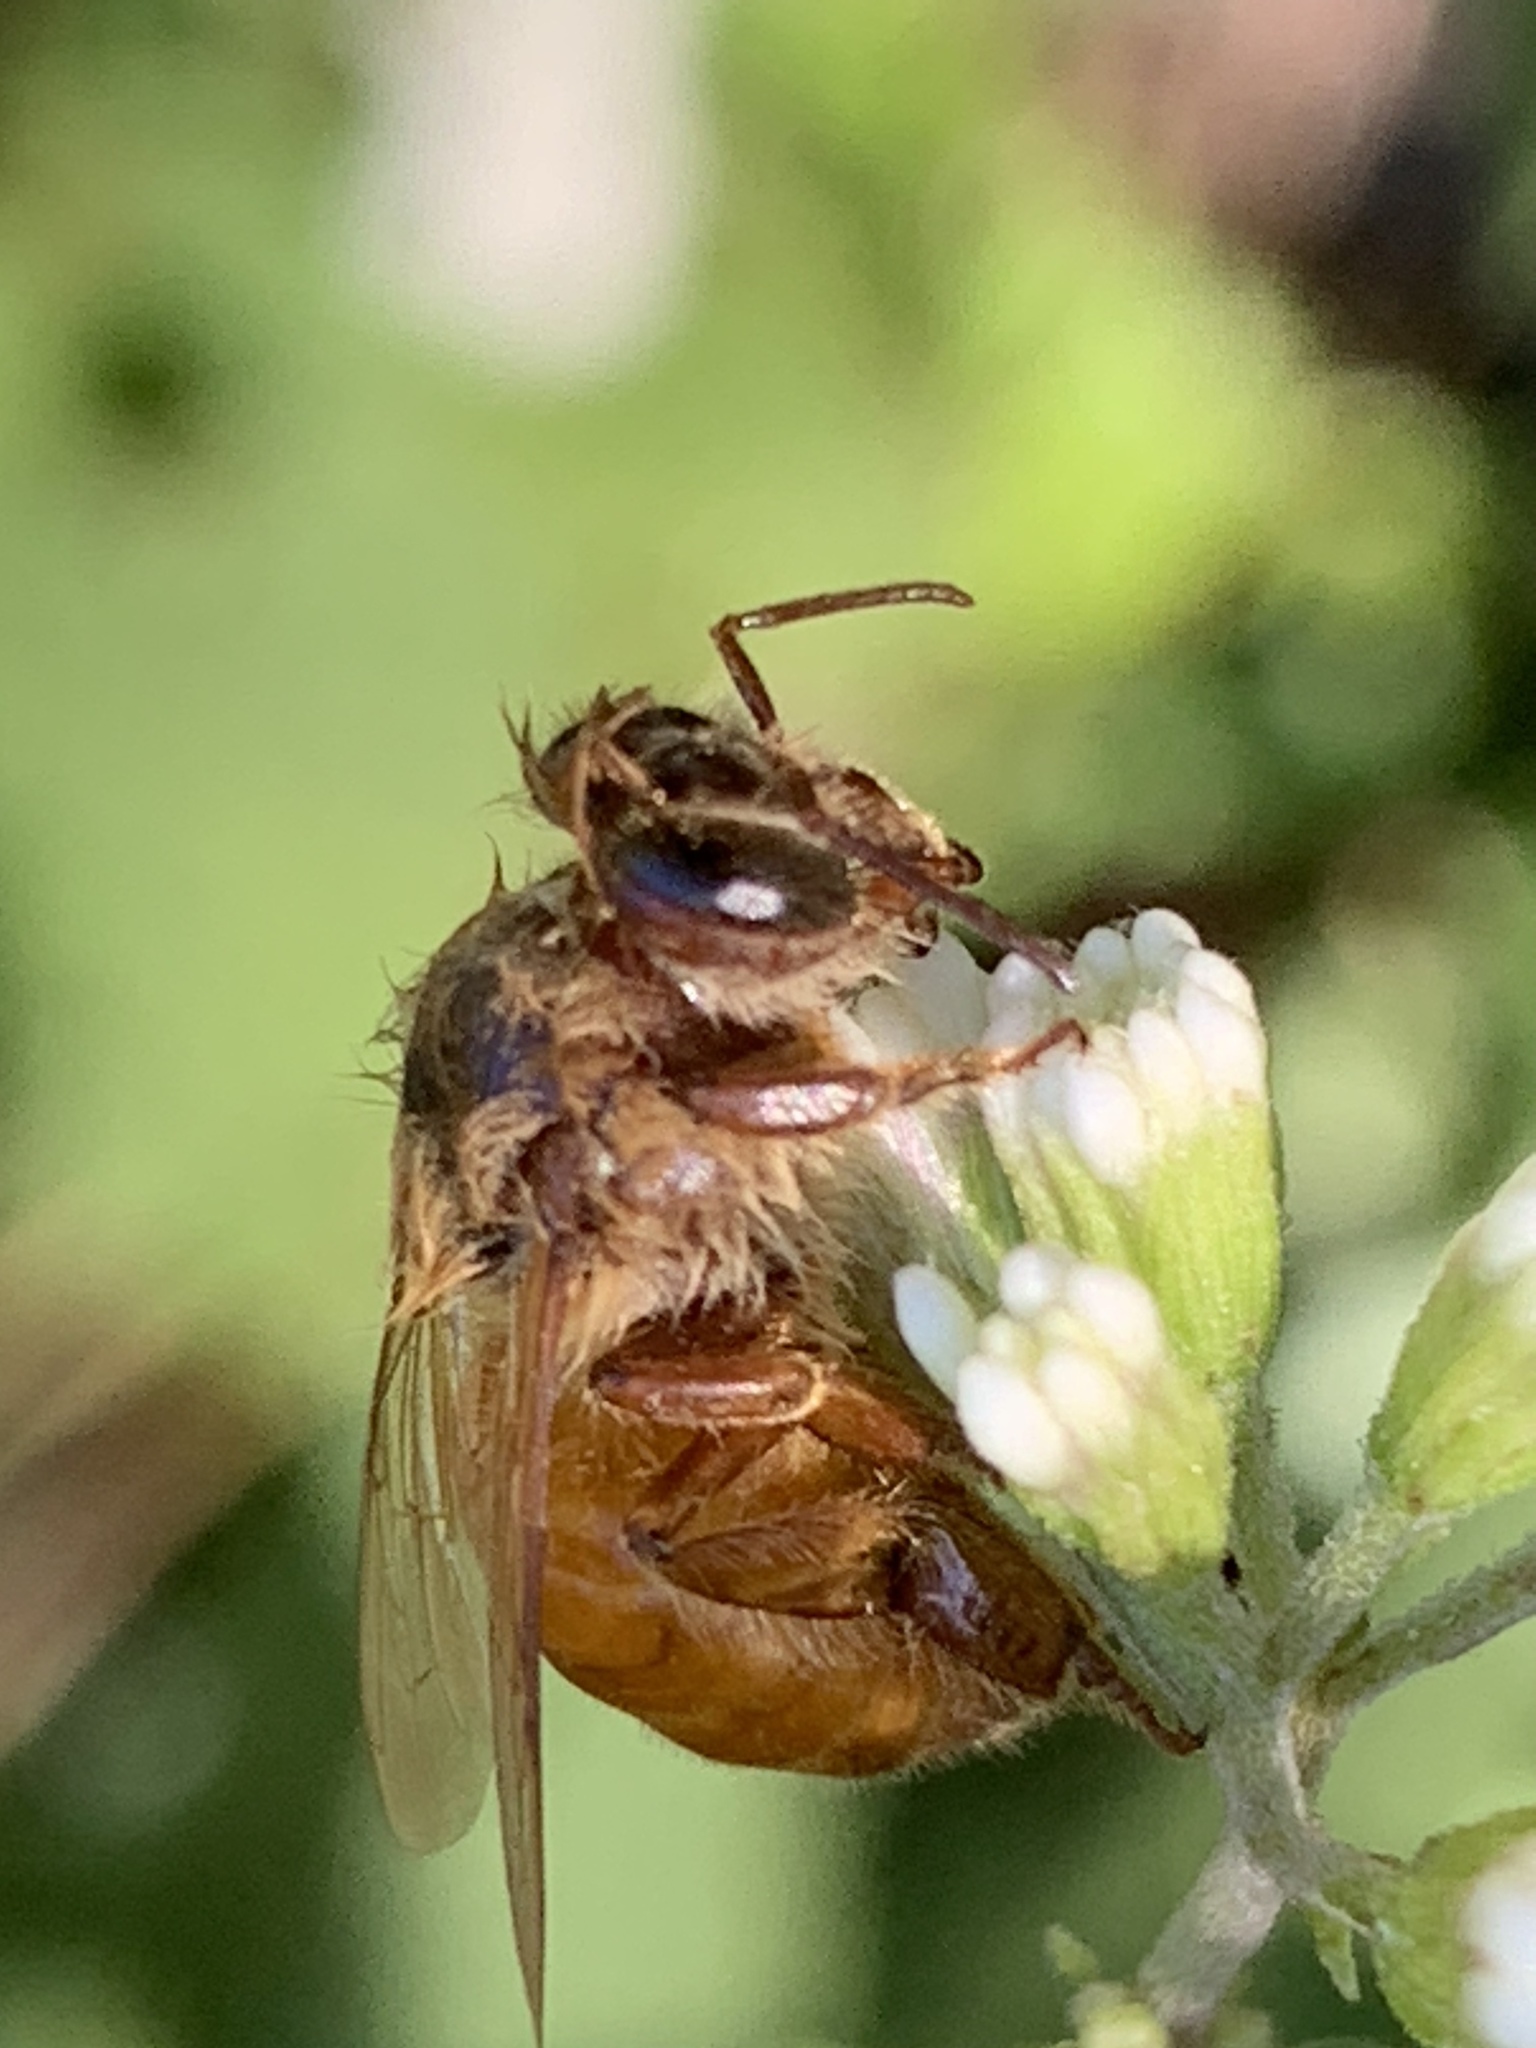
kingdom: Animalia
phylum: Arthropoda
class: Insecta
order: Hymenoptera
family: Apidae
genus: Apis
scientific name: Apis mellifera
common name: Honey bee
